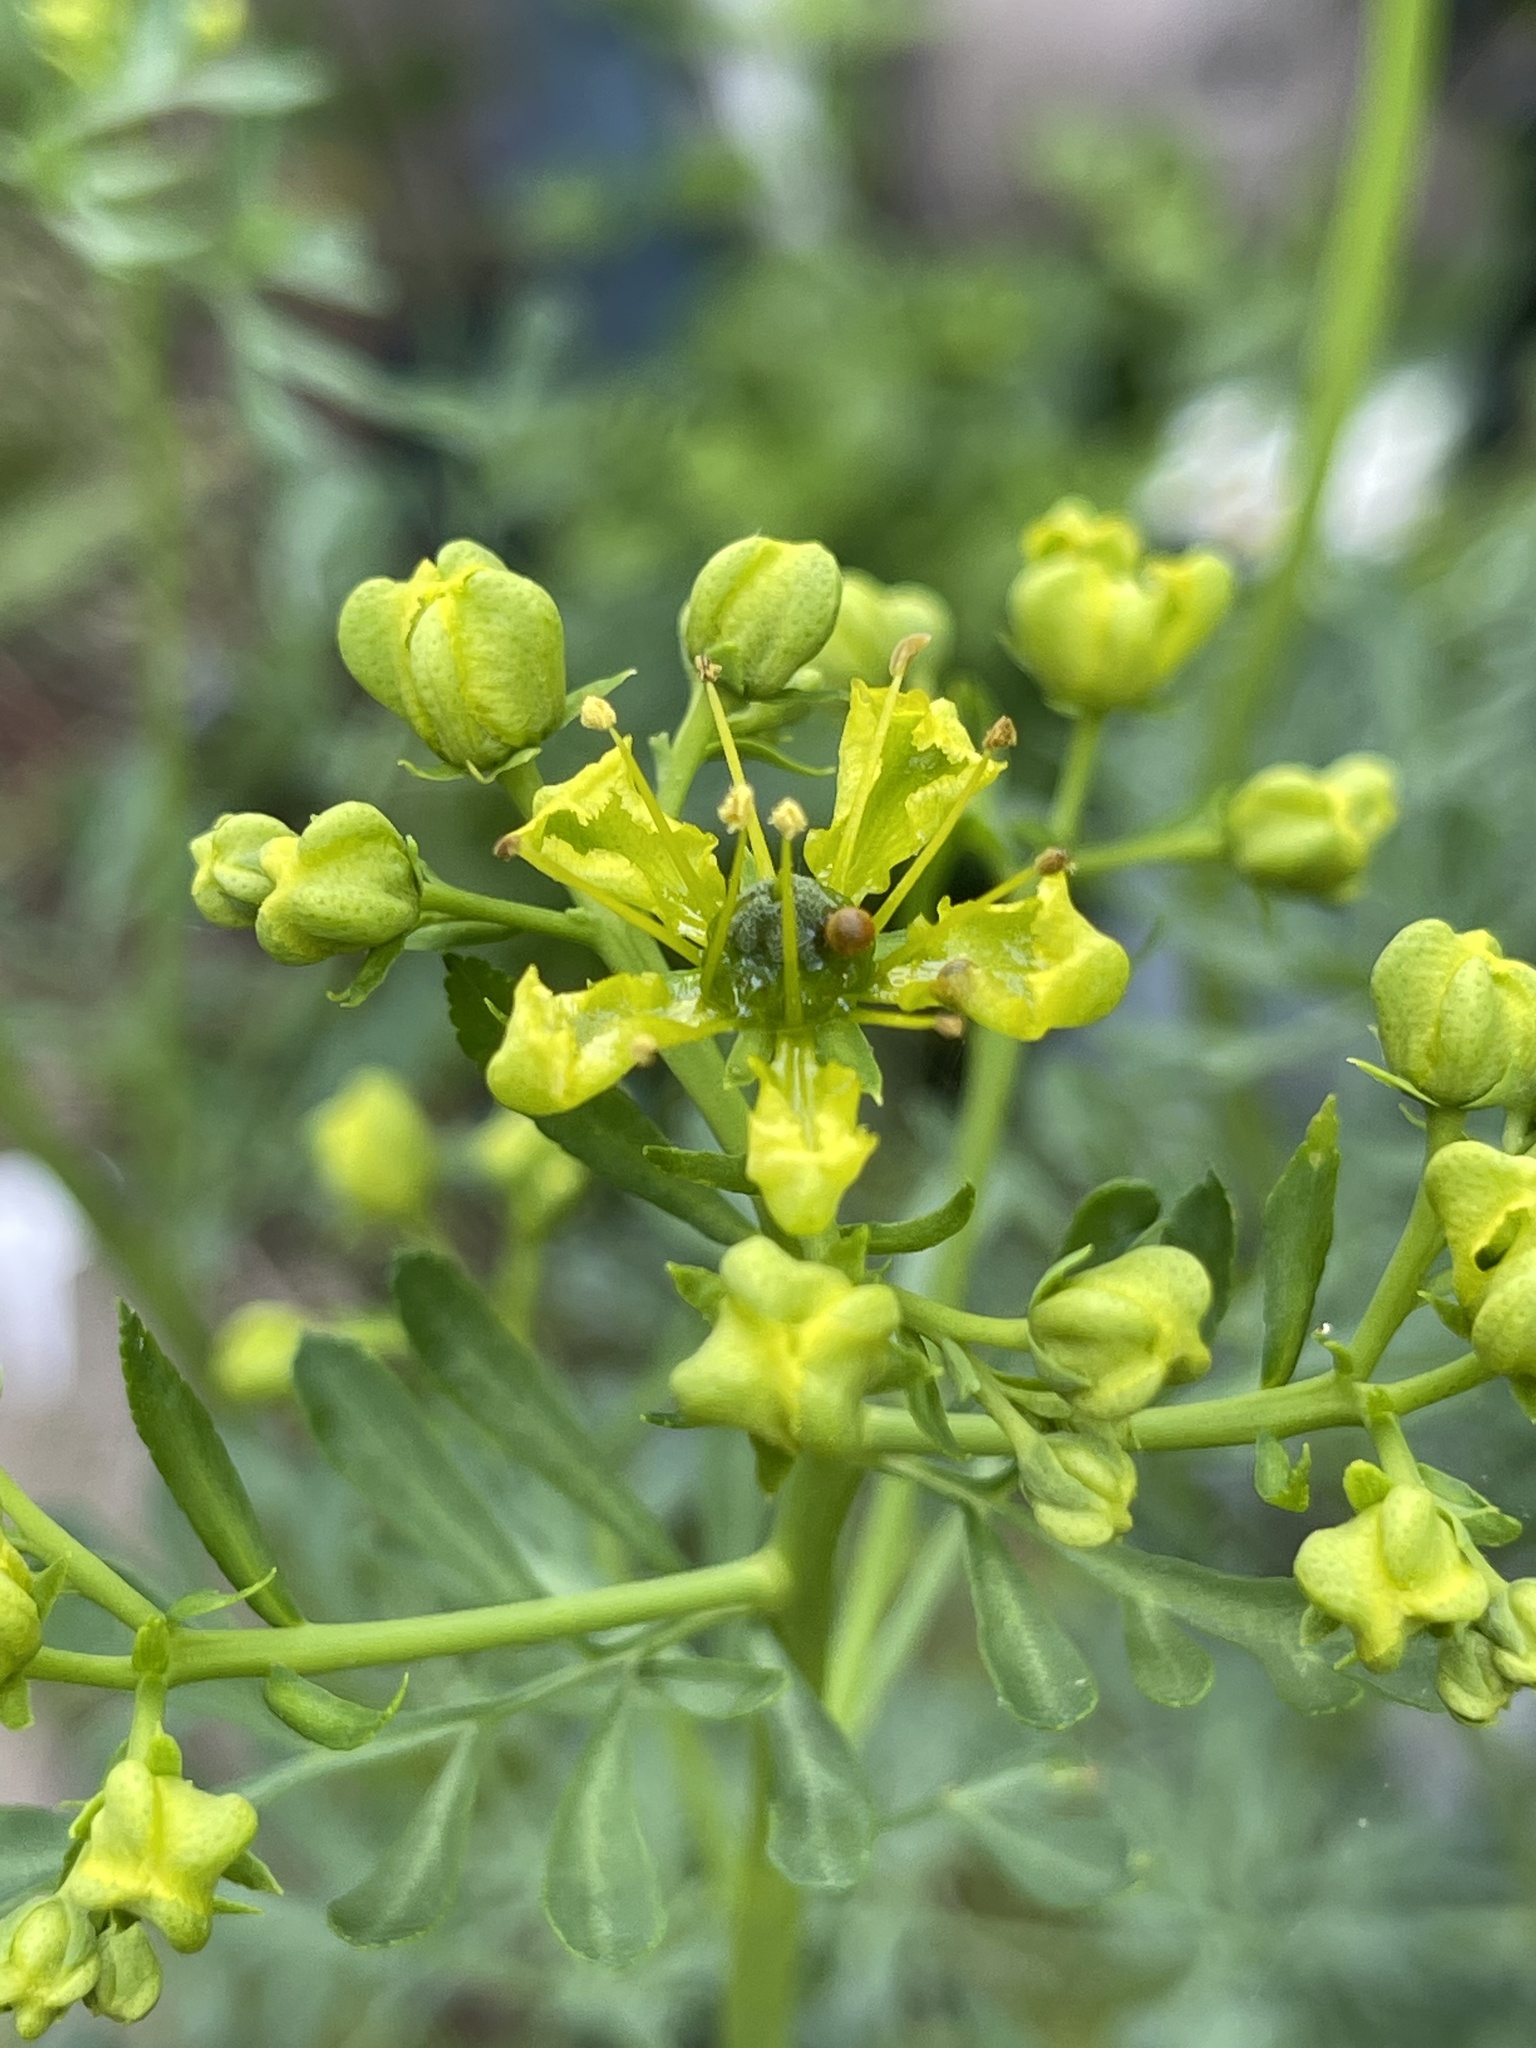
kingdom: Animalia
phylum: Arthropoda
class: Insecta
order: Lepidoptera
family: Papilionidae
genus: Papilio
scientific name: Papilio cresphontes
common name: Giant swallowtail
